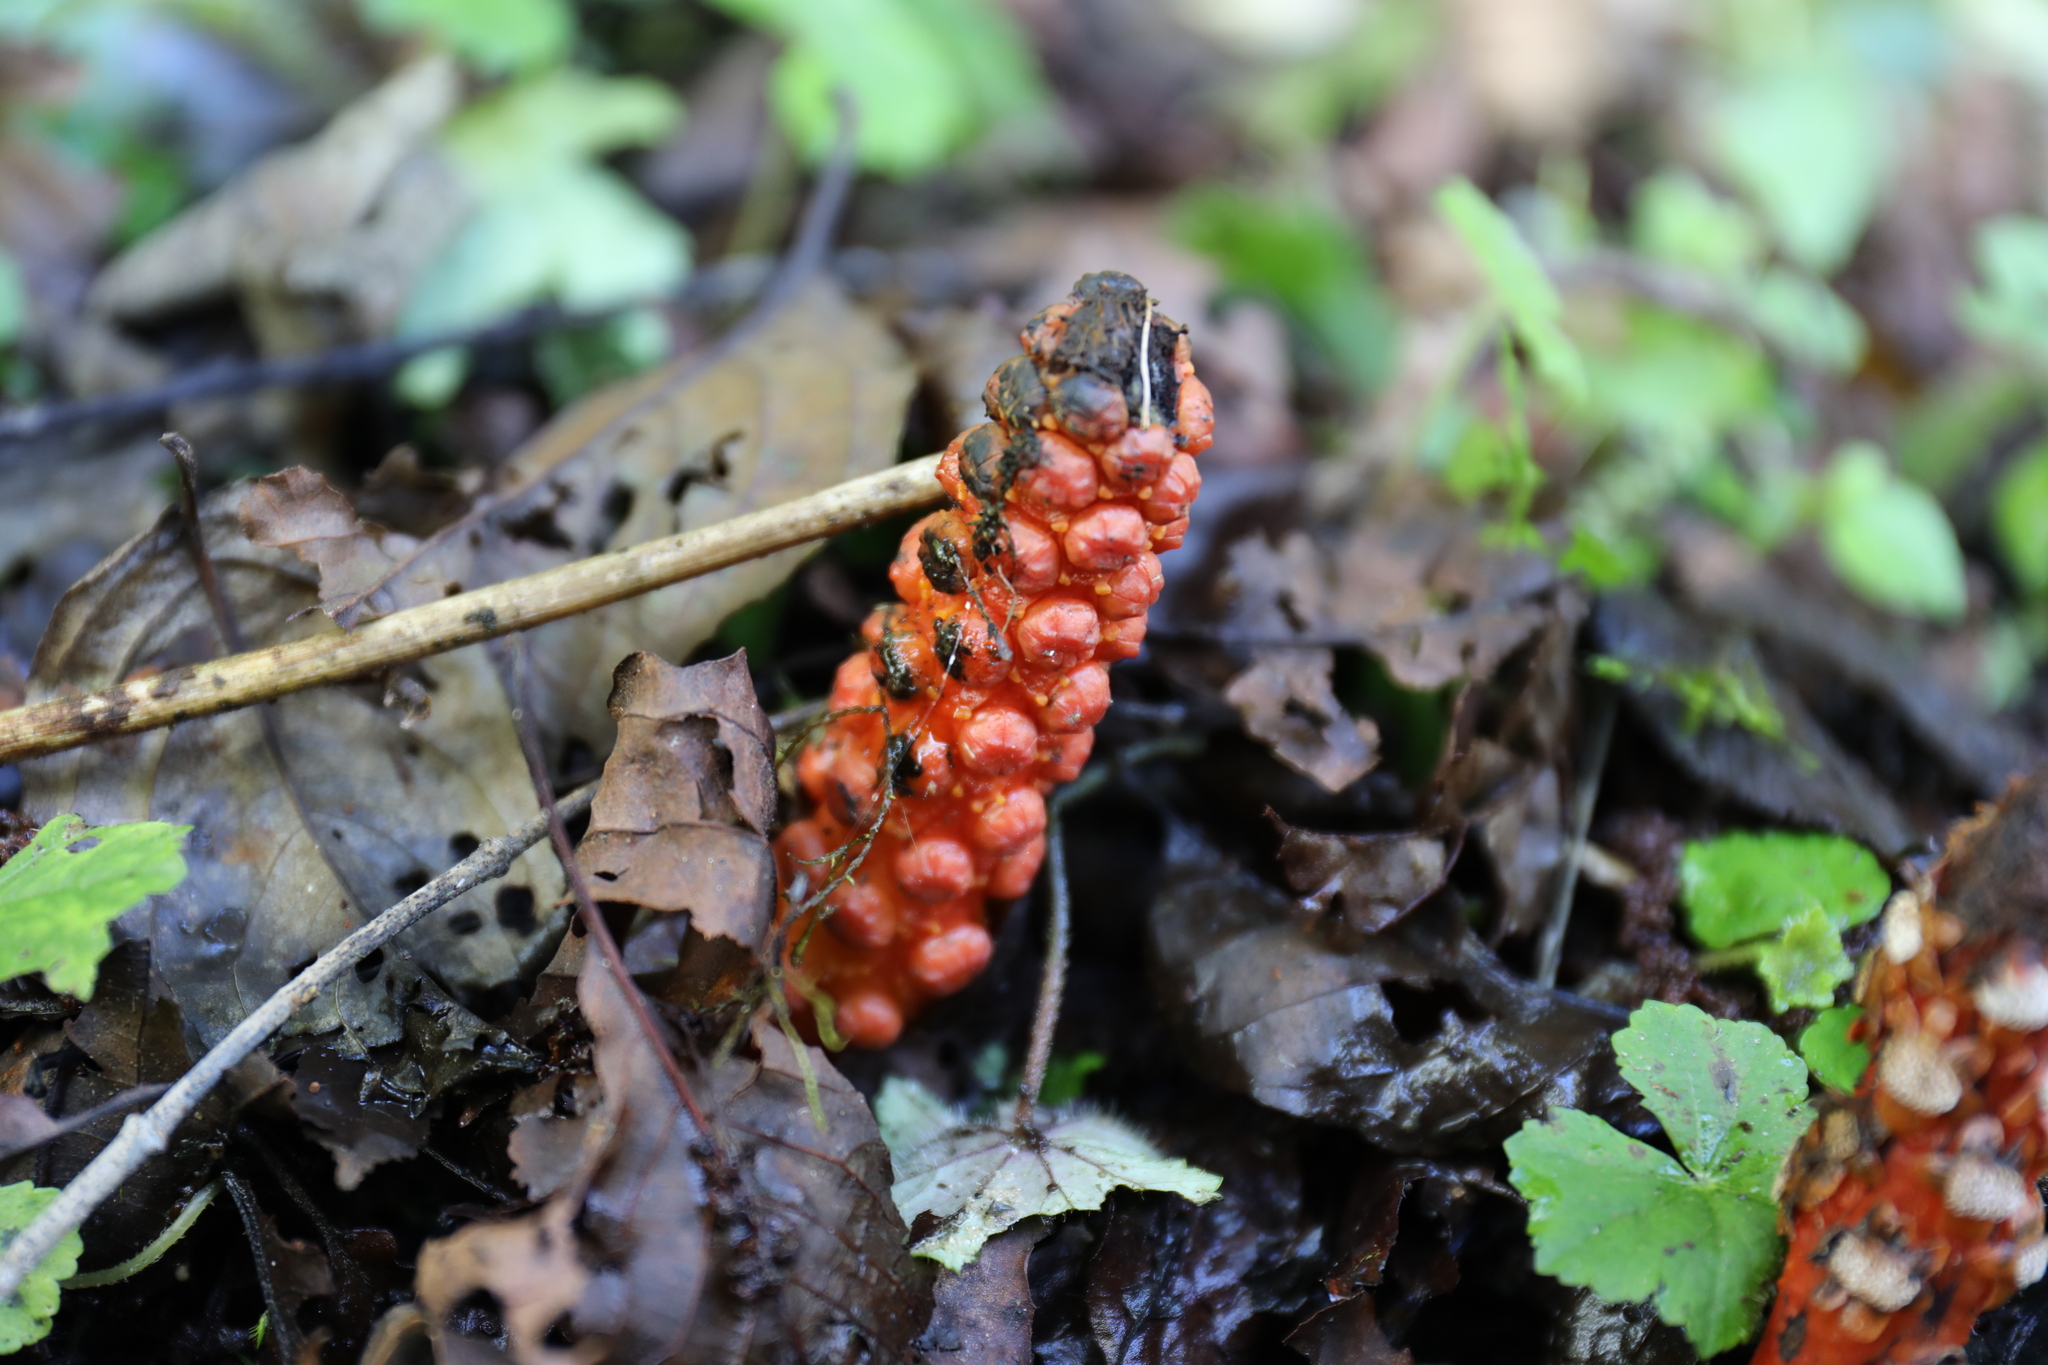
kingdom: Plantae
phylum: Tracheophyta
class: Magnoliopsida
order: Santalales
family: Balanophoraceae
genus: Balanophora
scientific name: Balanophora laxiflora
